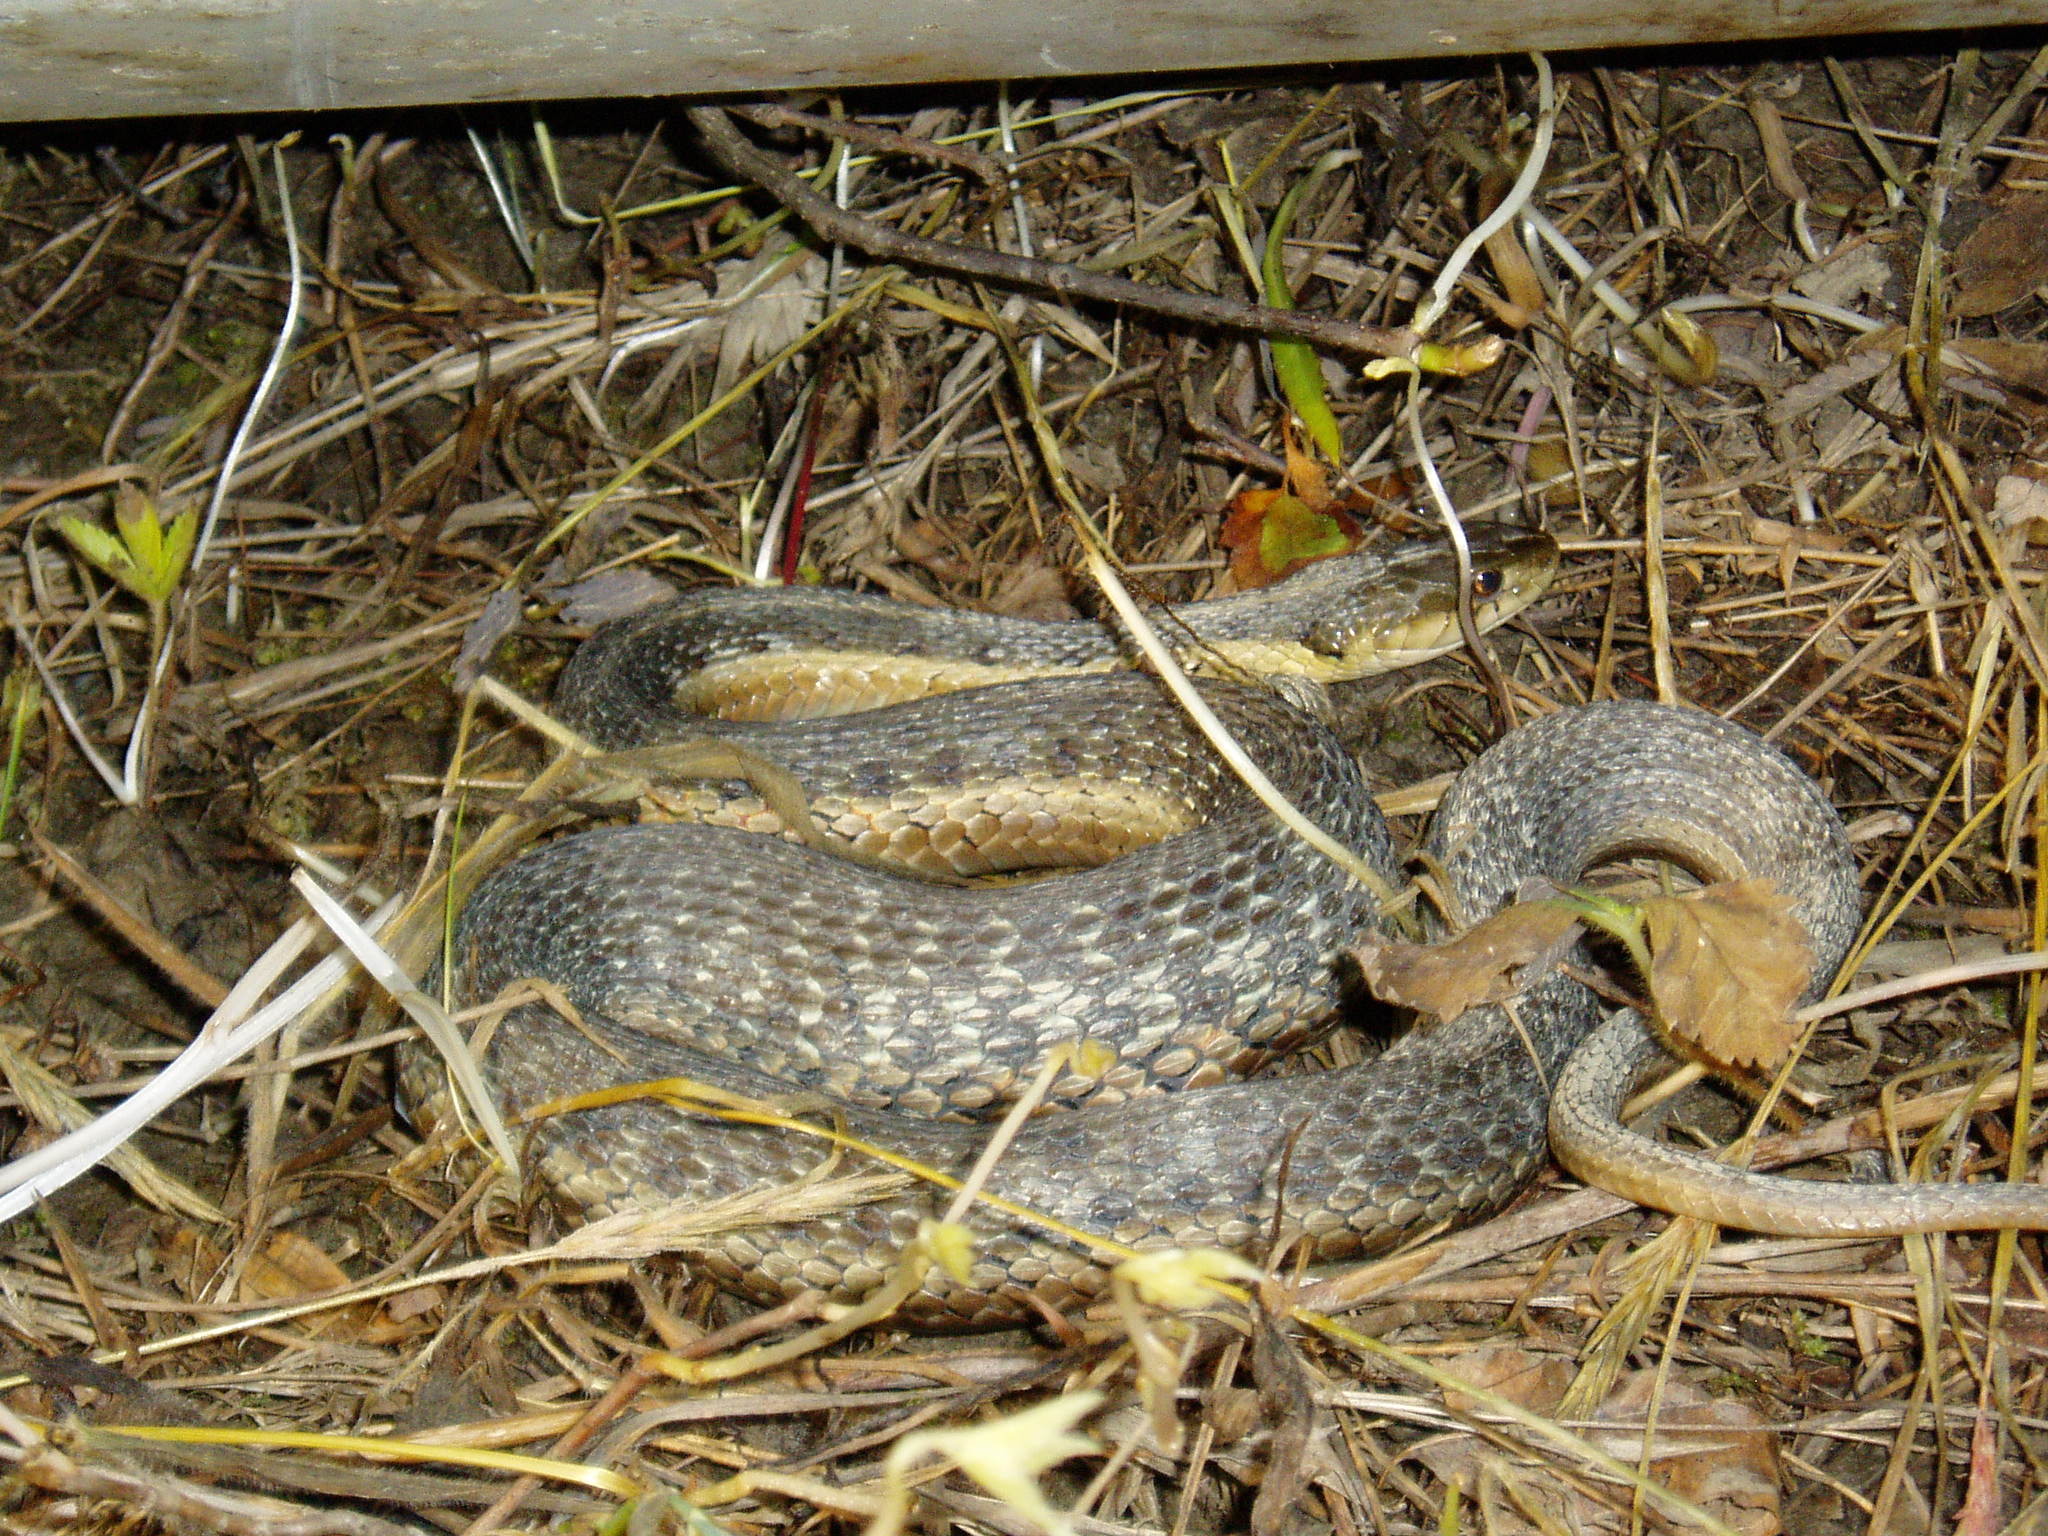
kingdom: Animalia
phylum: Chordata
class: Squamata
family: Colubridae
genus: Thamnophis
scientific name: Thamnophis sirtalis
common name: Common garter snake
